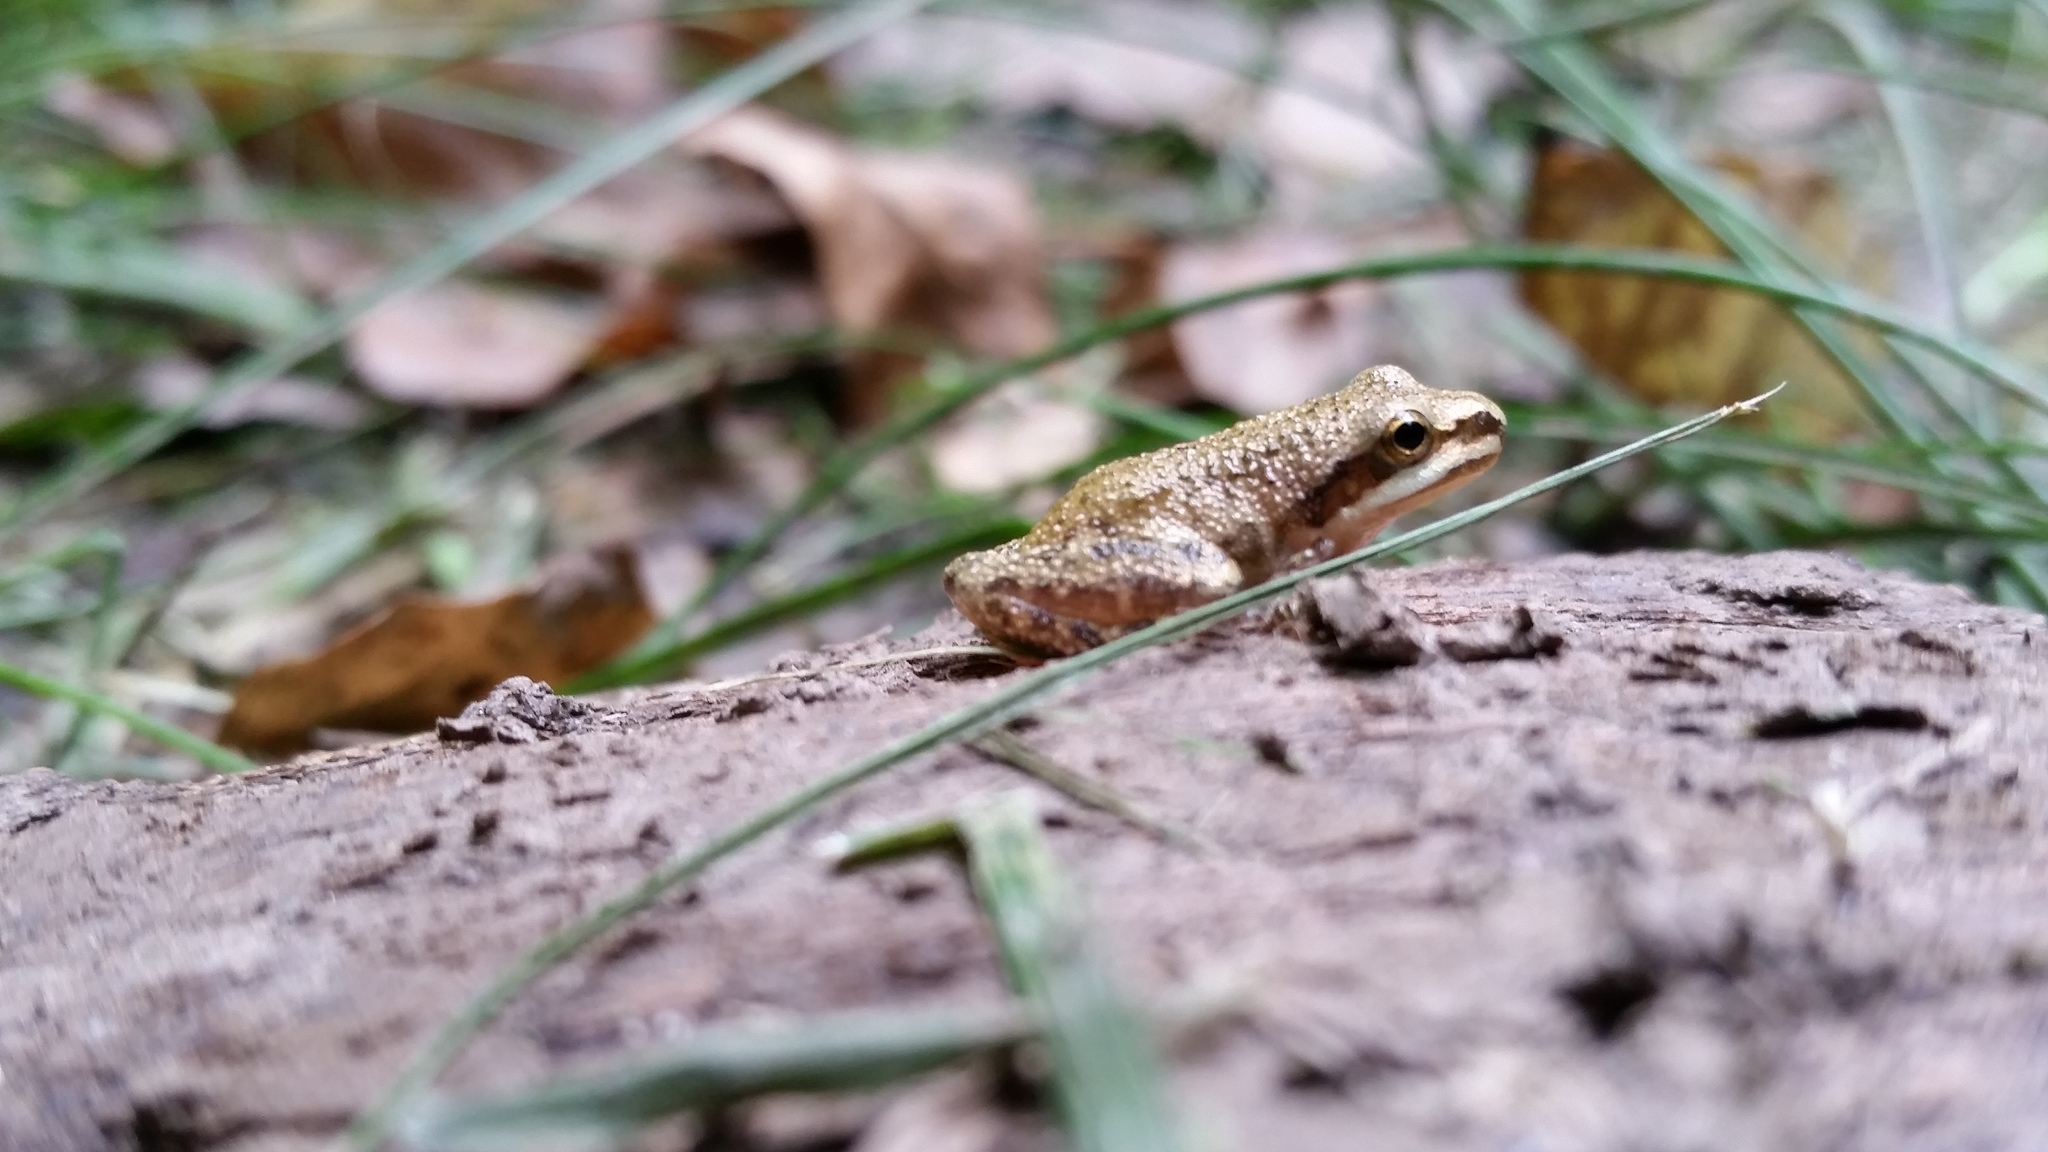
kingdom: Animalia
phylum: Chordata
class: Amphibia
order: Anura
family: Hylidae
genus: Pseudacris
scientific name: Pseudacris feriarum
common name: Upland chorus frog
